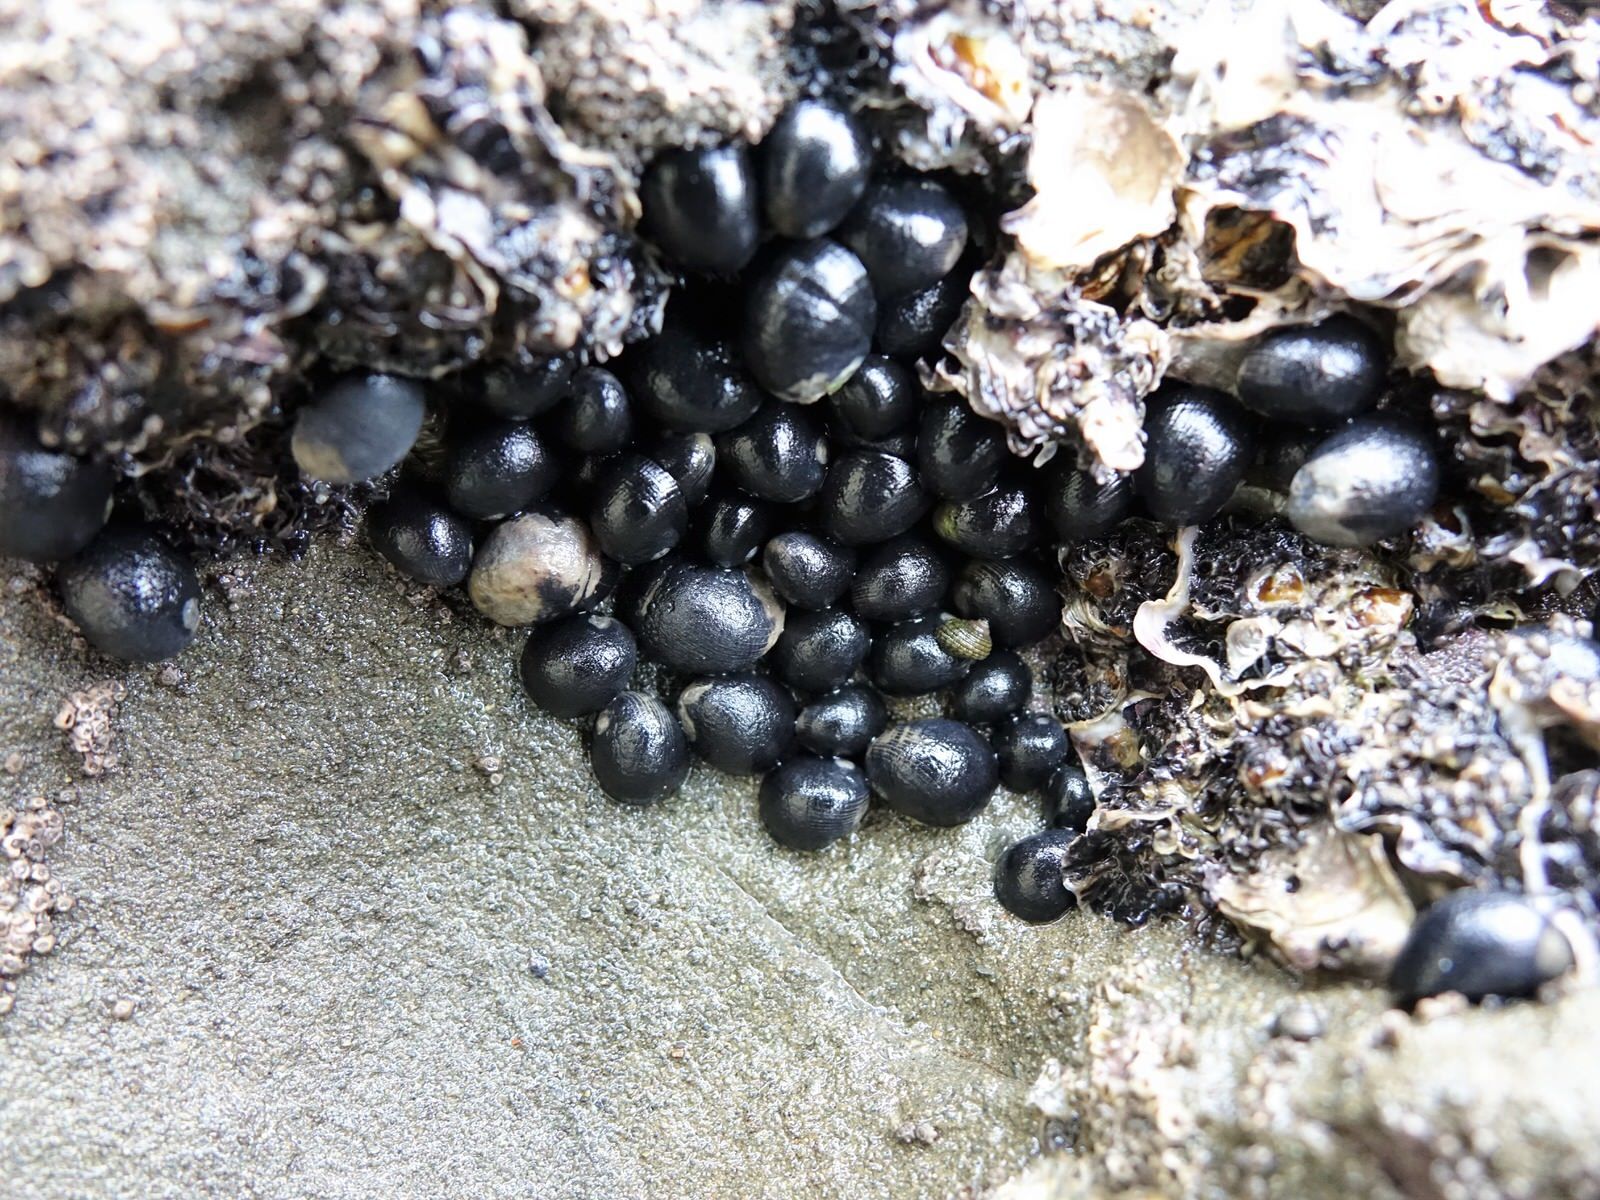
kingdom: Animalia
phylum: Mollusca
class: Gastropoda
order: Cycloneritida
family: Neritidae
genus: Nerita
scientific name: Nerita melanotragus
